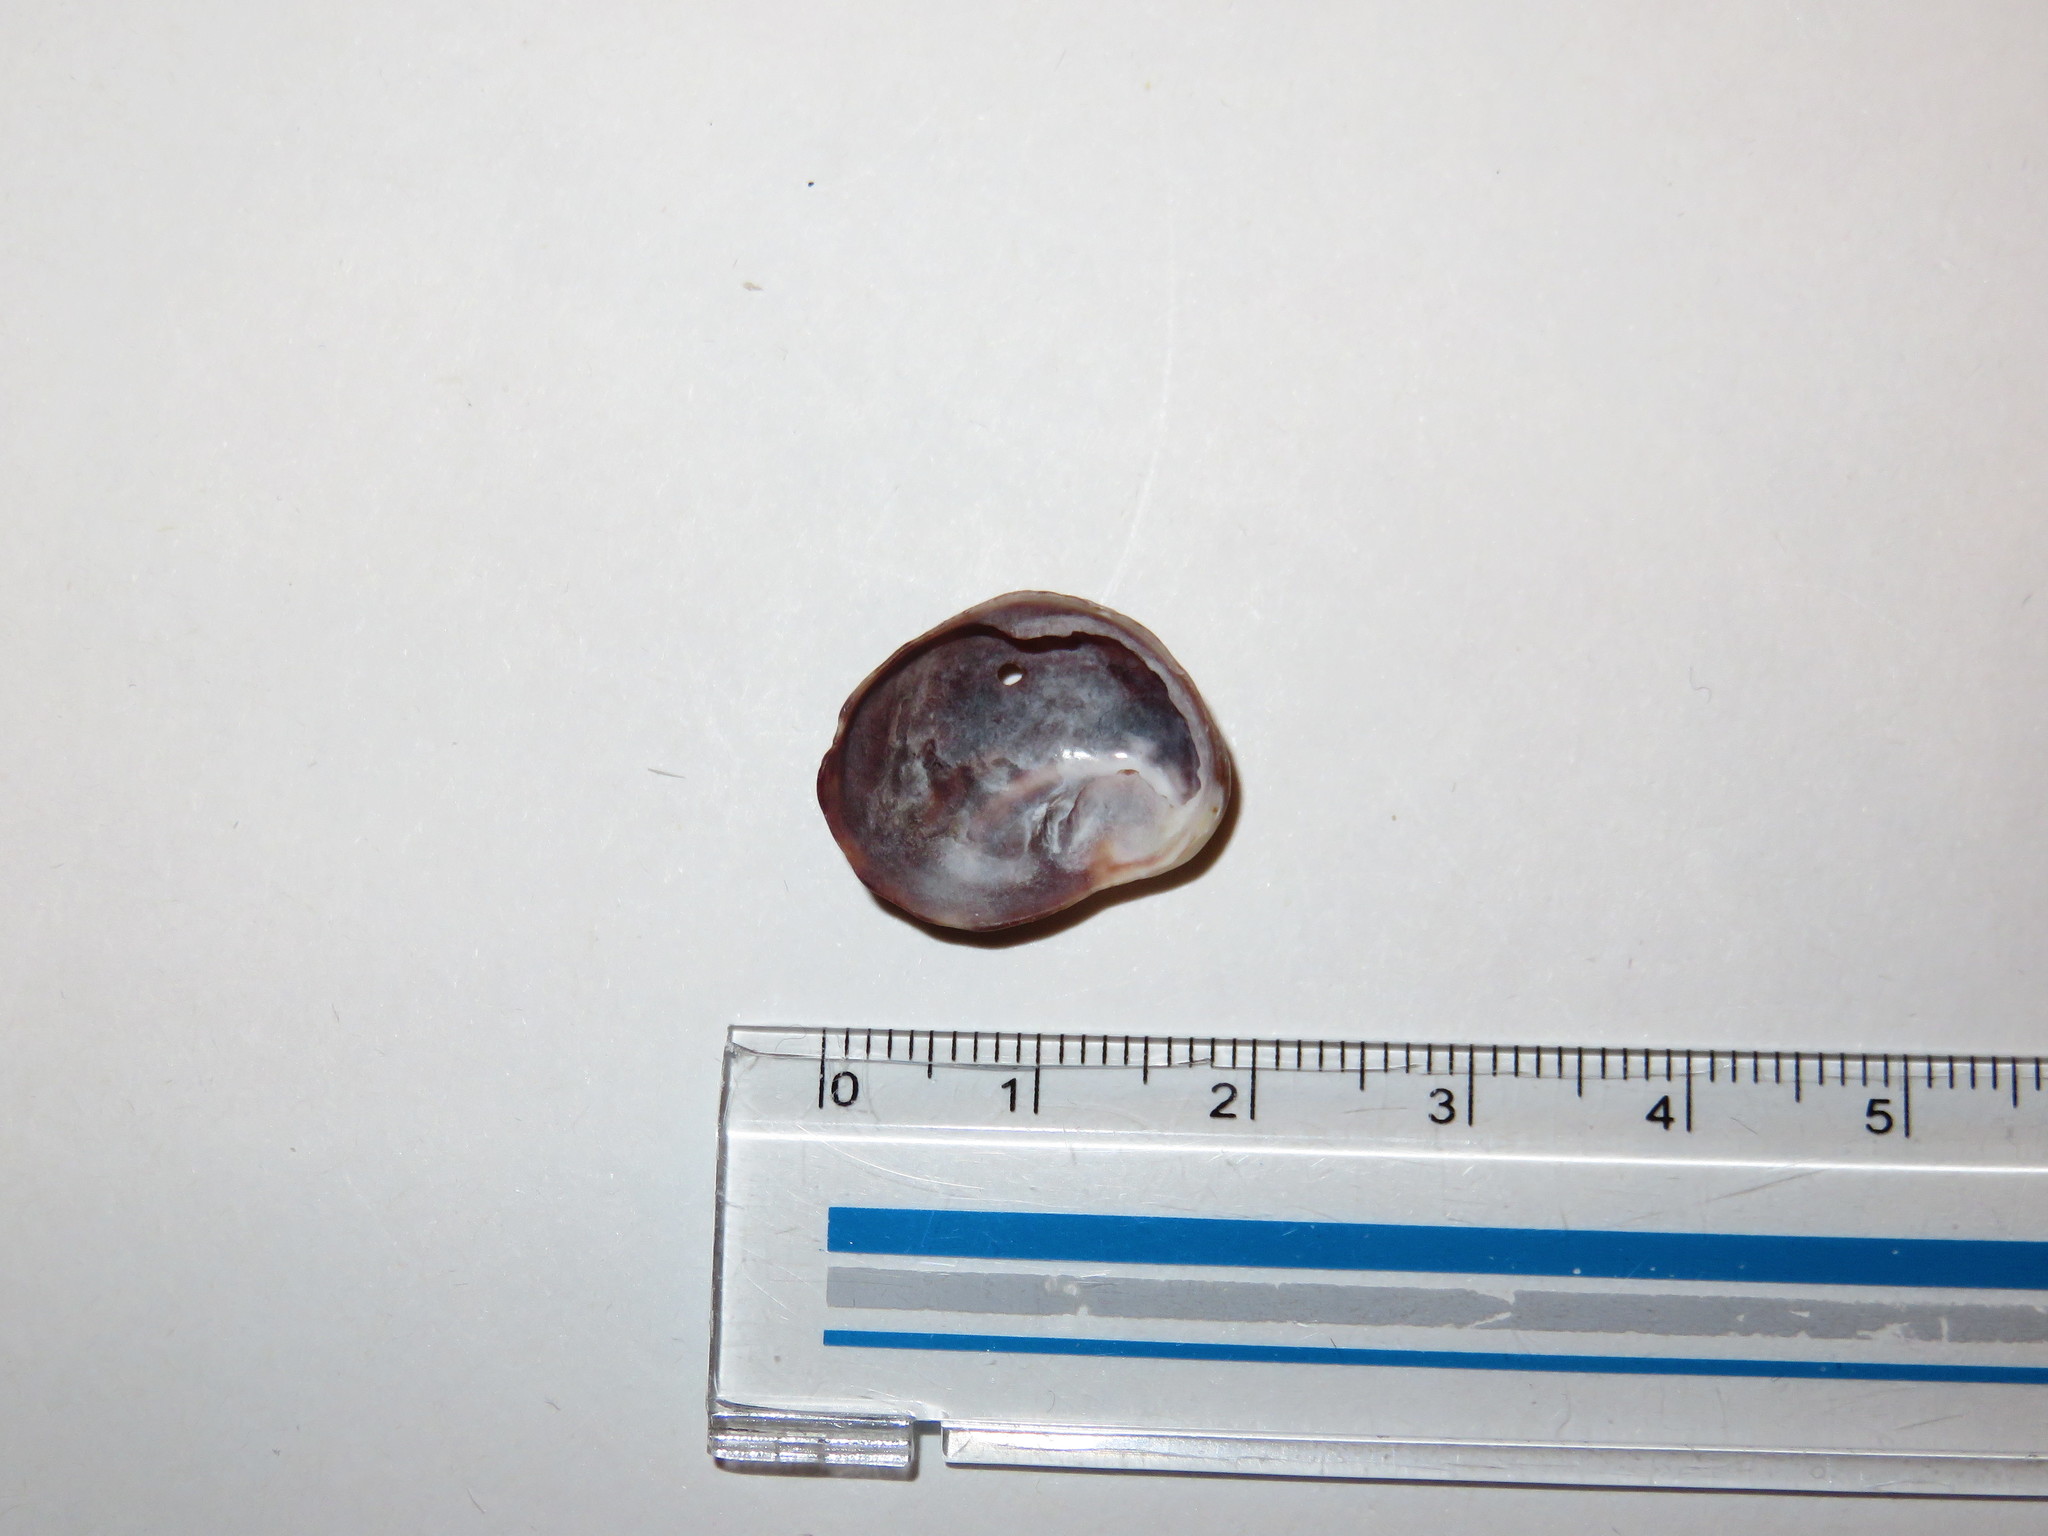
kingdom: Animalia
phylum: Mollusca
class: Gastropoda
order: Littorinimorpha
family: Calyptraeidae
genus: Bostrycapulus
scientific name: Bostrycapulus gravispinosus
